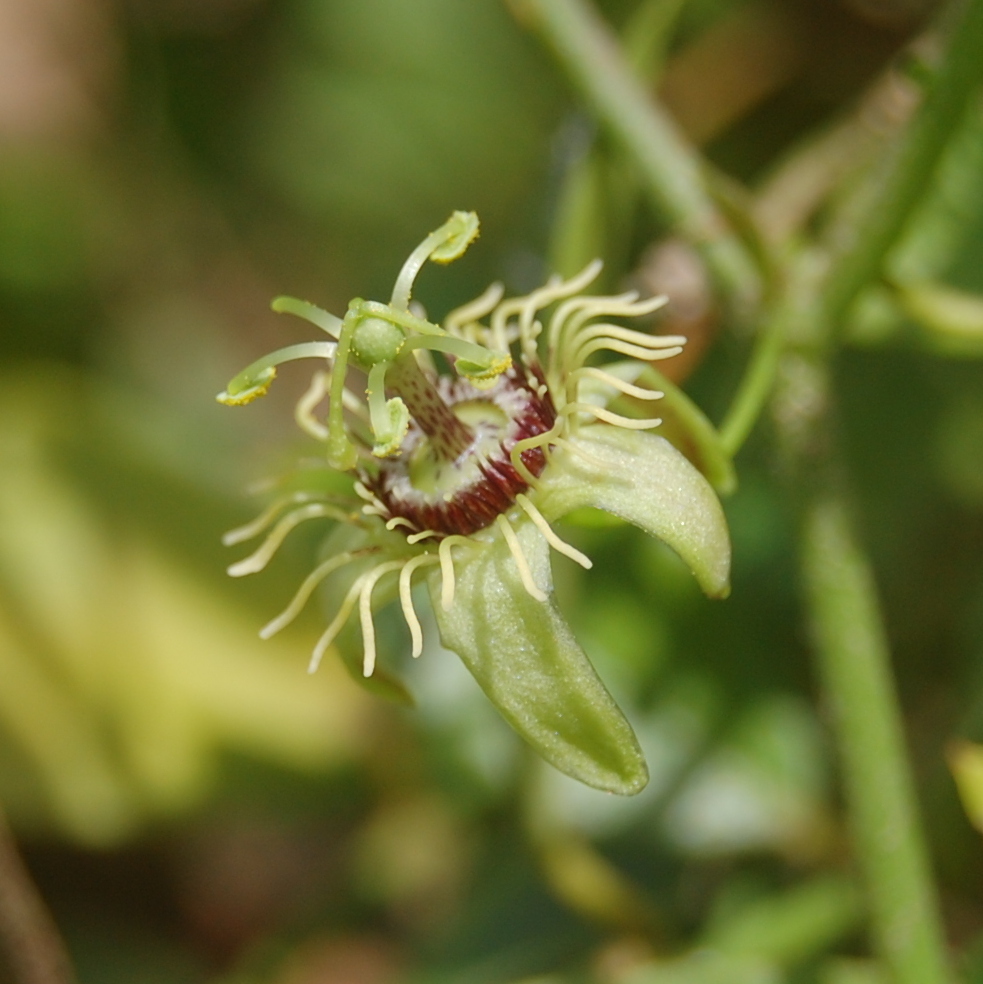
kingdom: Plantae
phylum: Tracheophyta
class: Magnoliopsida
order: Malpighiales
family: Passifloraceae
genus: Passiflora
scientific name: Passiflora suberosa
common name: Wild passionfruit
